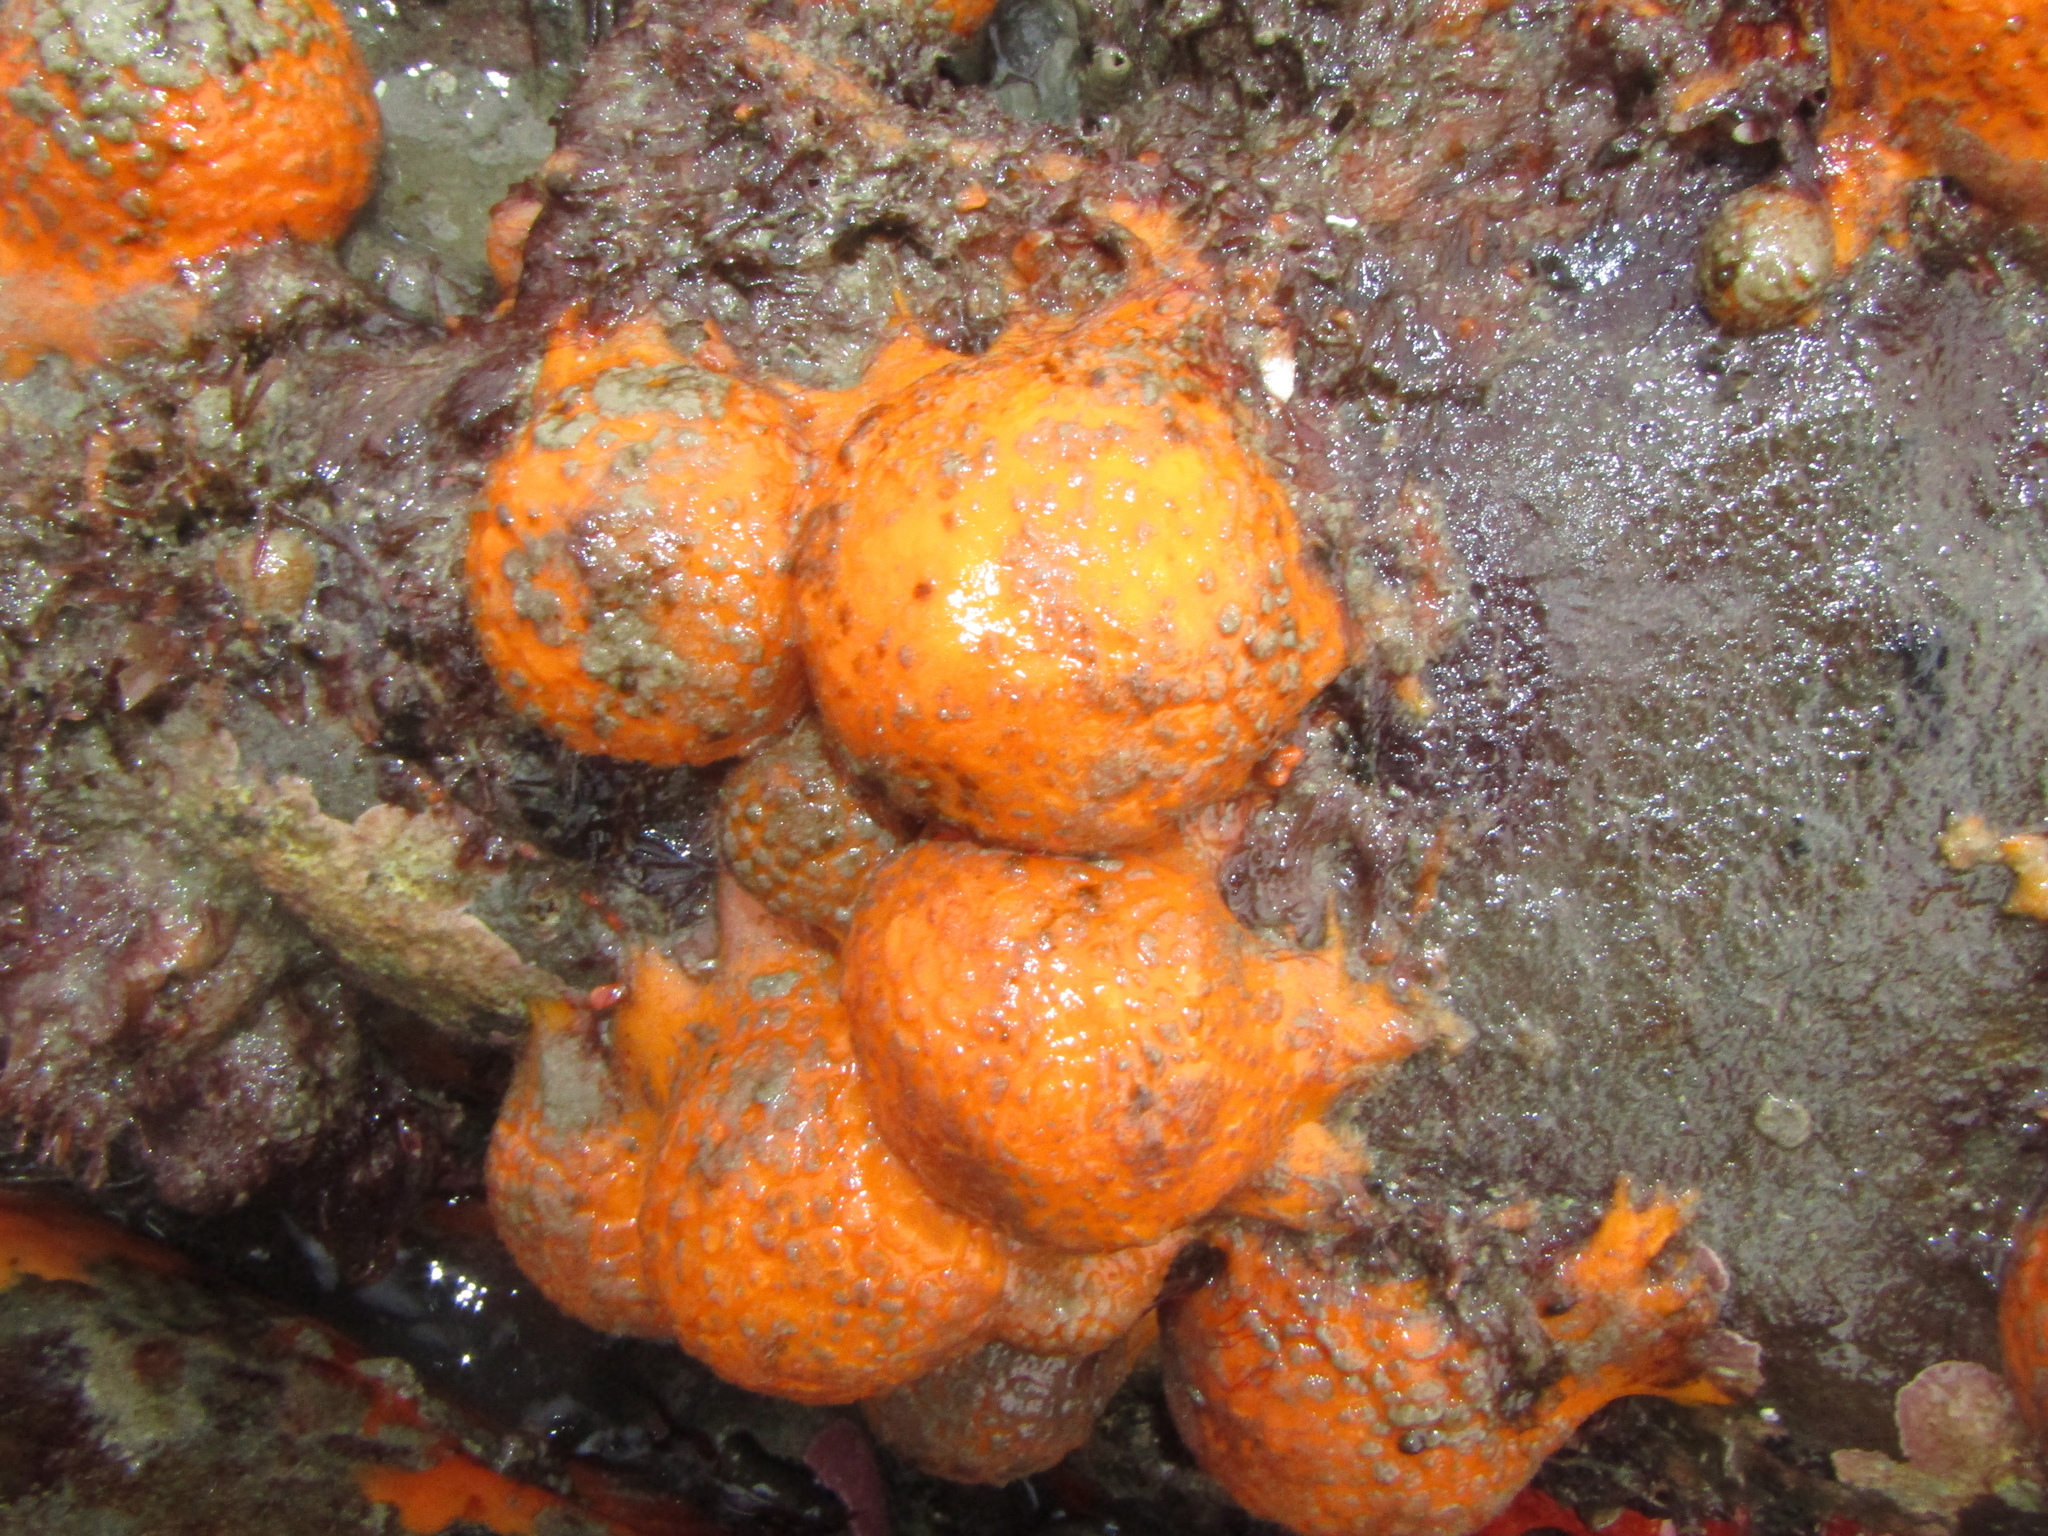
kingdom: Animalia
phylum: Porifera
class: Demospongiae
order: Tethyida
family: Tethyidae
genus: Tethya
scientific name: Tethya burtoni
